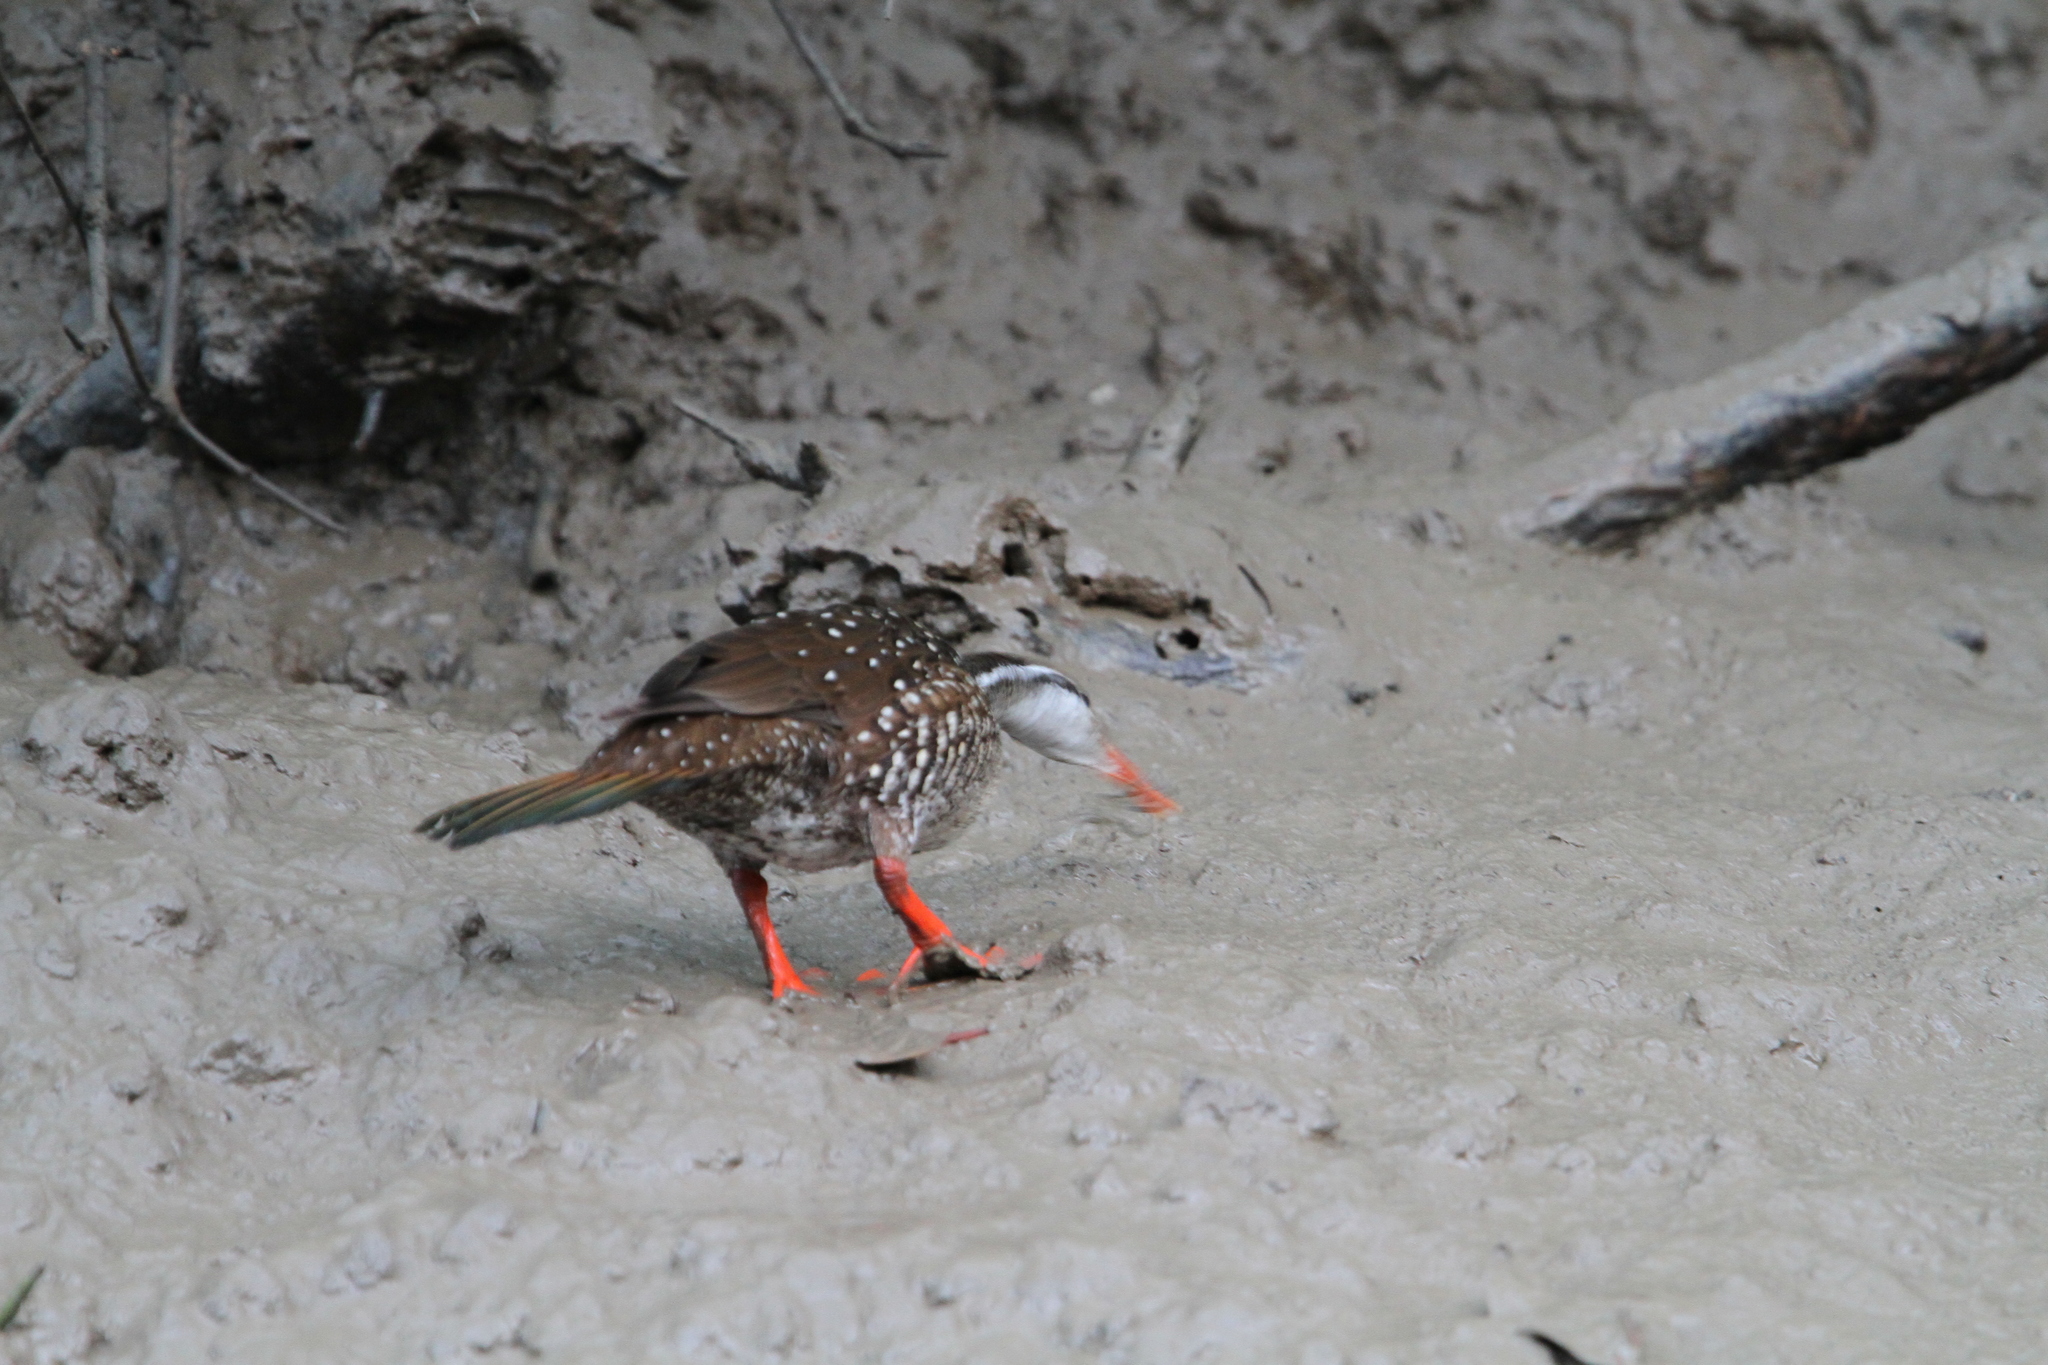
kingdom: Animalia
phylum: Chordata
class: Aves
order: Gruiformes
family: Heliornithidae
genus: Podica
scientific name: Podica senegalensis
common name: African finfoot
